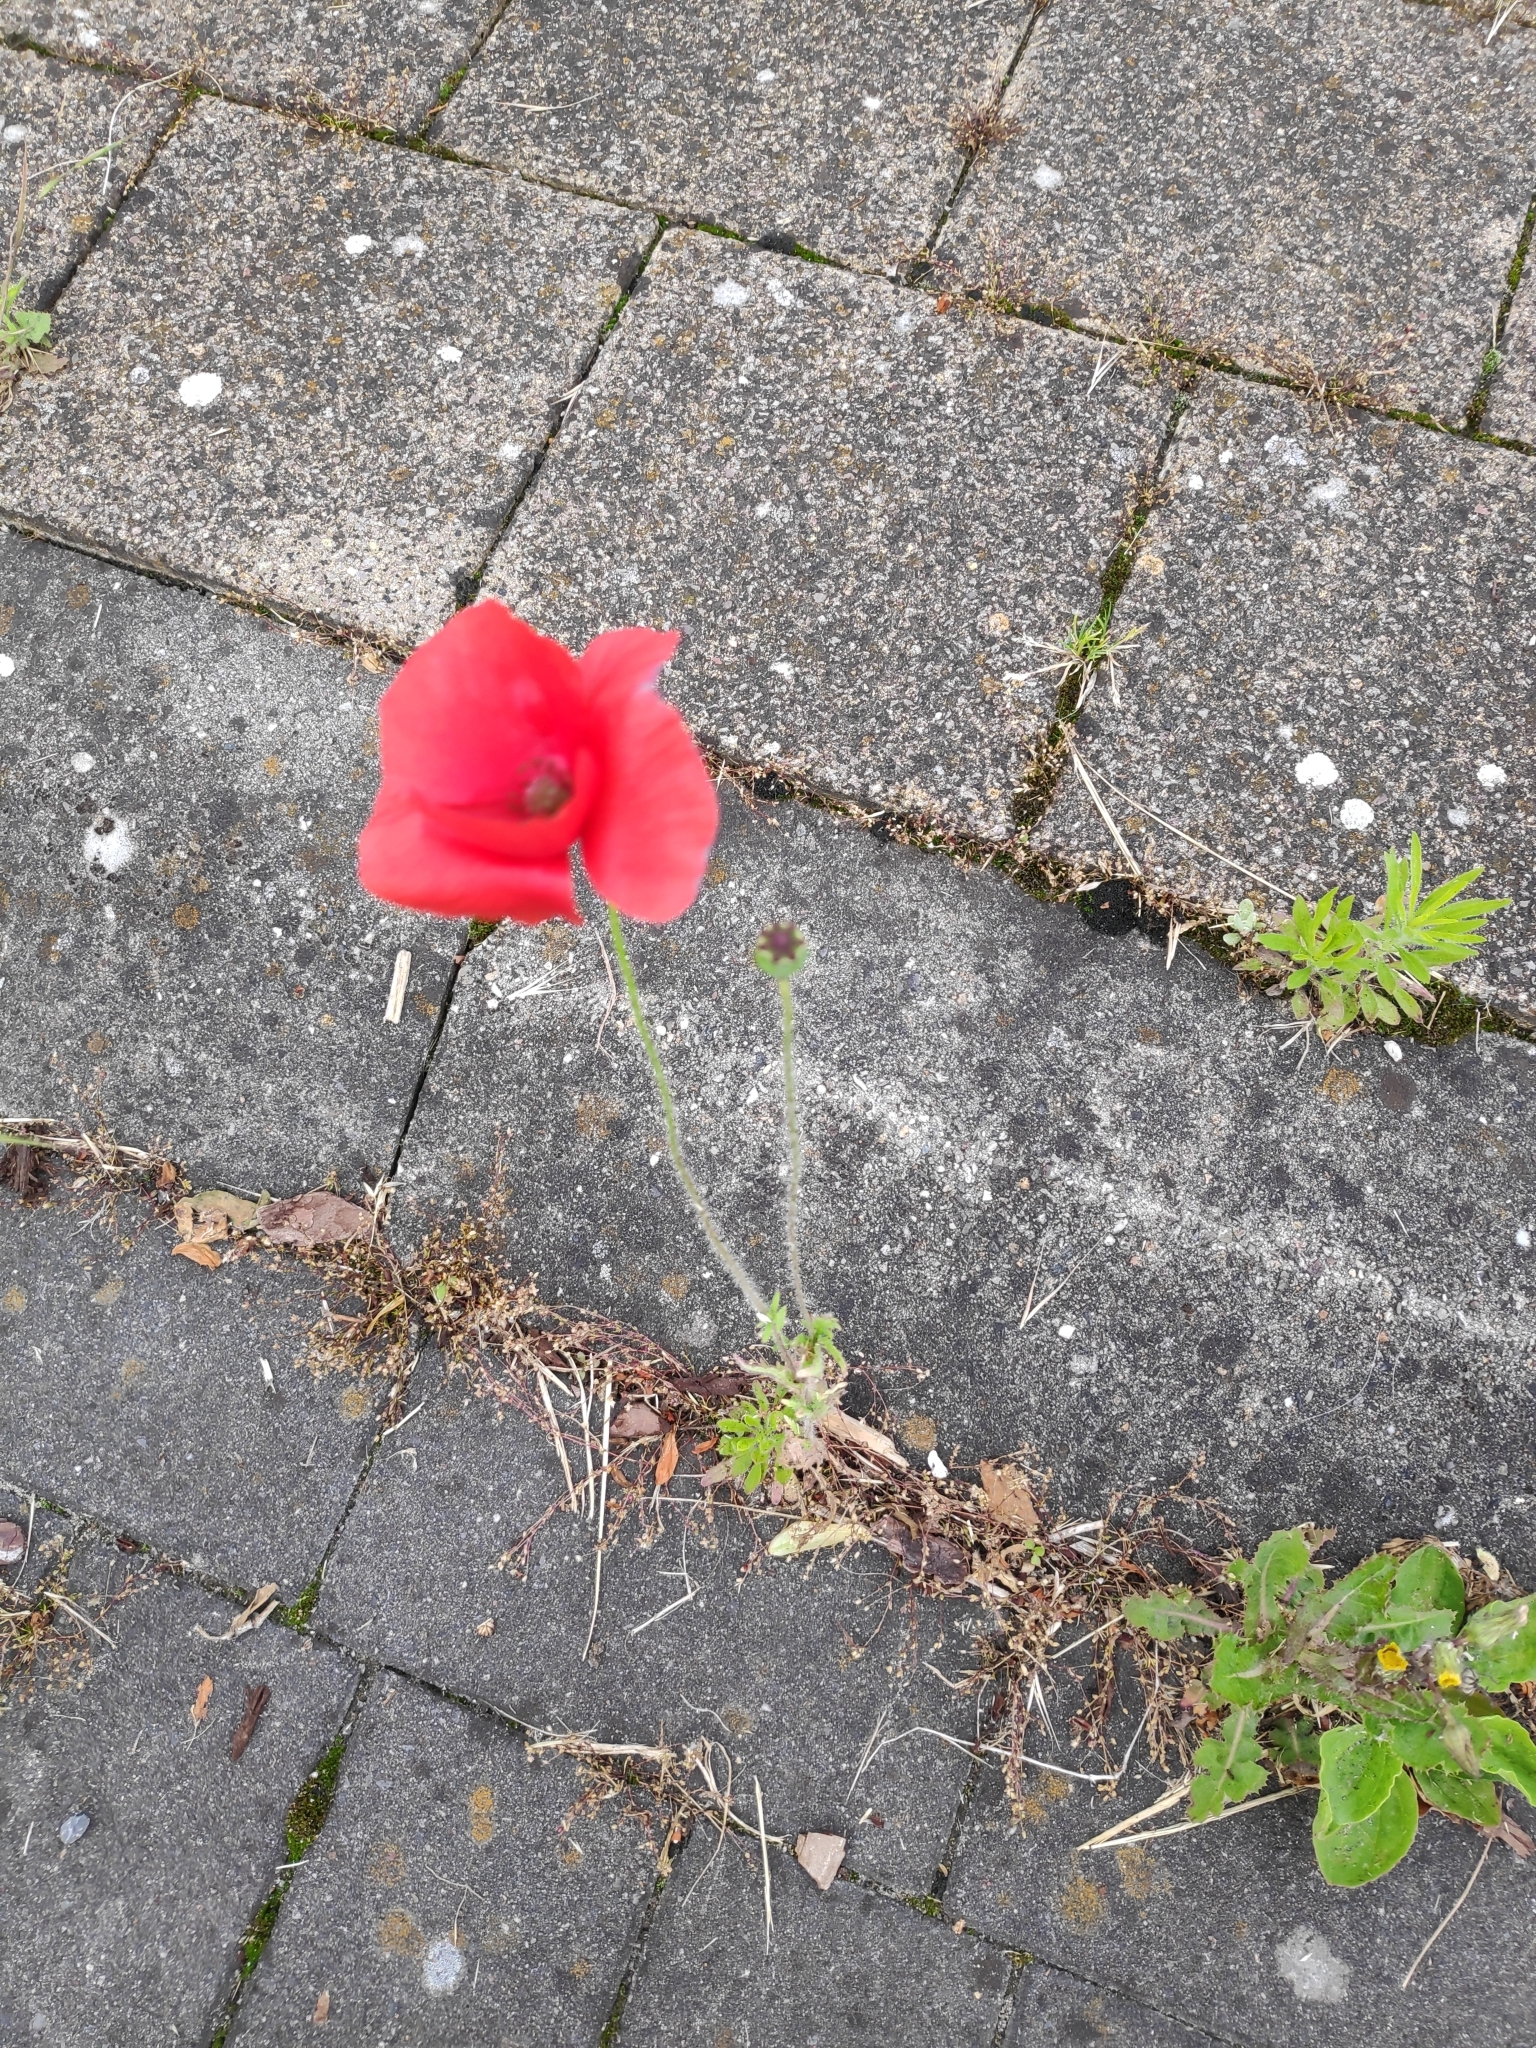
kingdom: Plantae
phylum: Tracheophyta
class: Magnoliopsida
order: Ranunculales
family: Papaveraceae
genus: Papaver
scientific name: Papaver rhoeas
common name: Corn poppy
